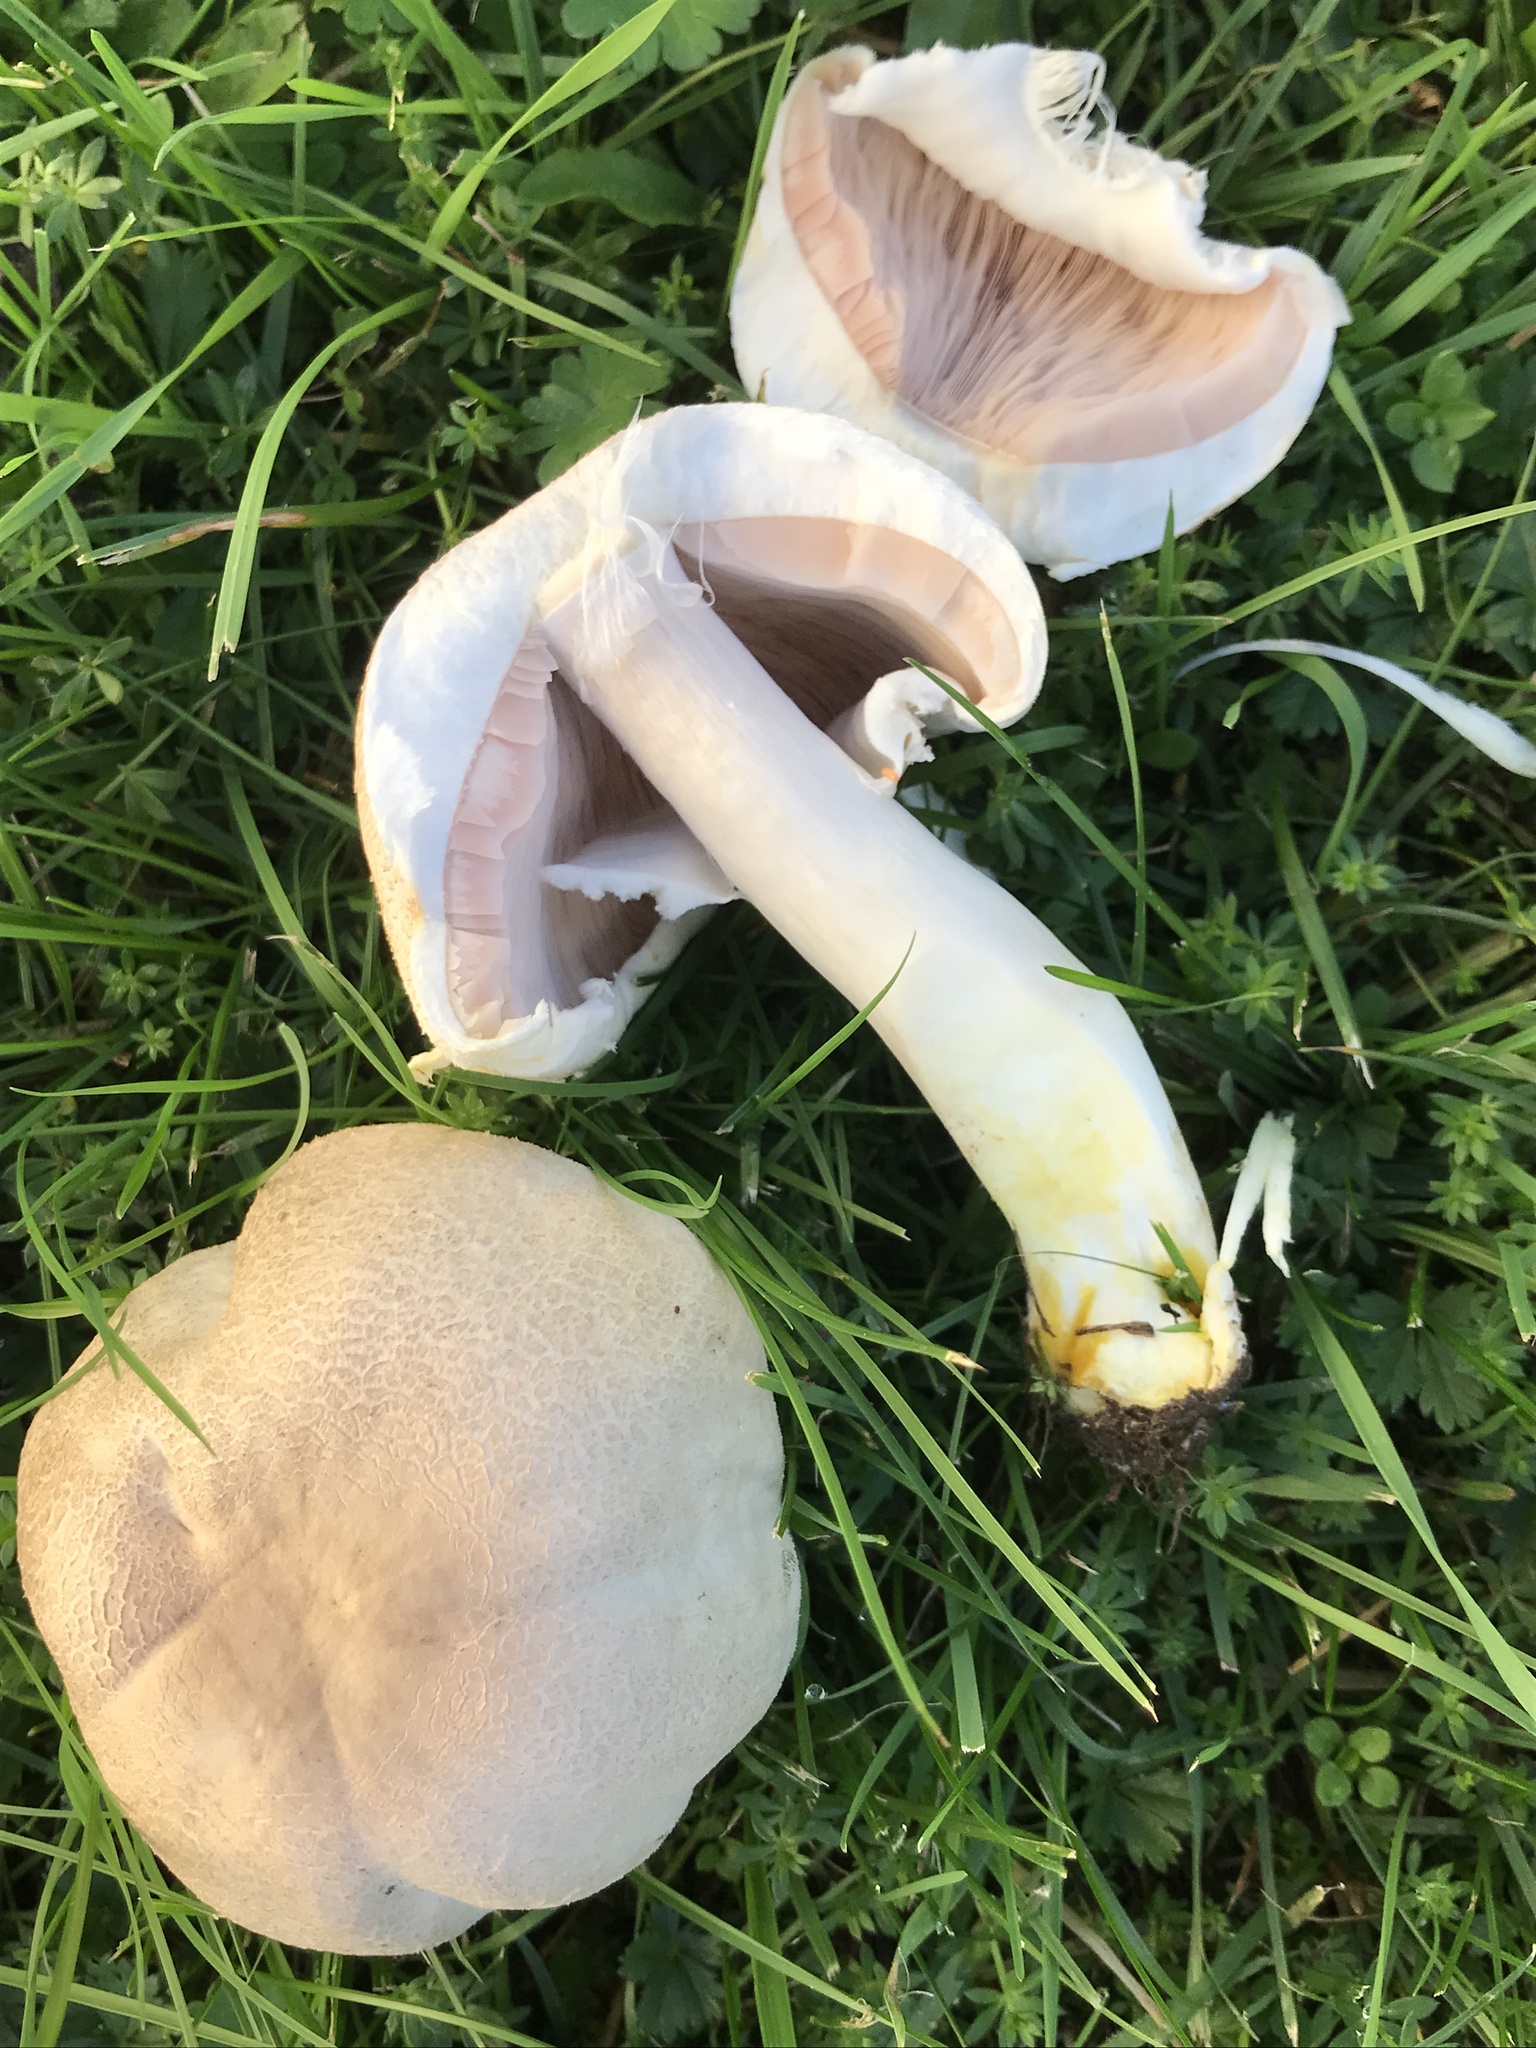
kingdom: Fungi
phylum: Basidiomycota
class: Agaricomycetes
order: Agaricales
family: Agaricaceae
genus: Agaricus
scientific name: Agaricus xanthodermus
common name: Yellow stainer
